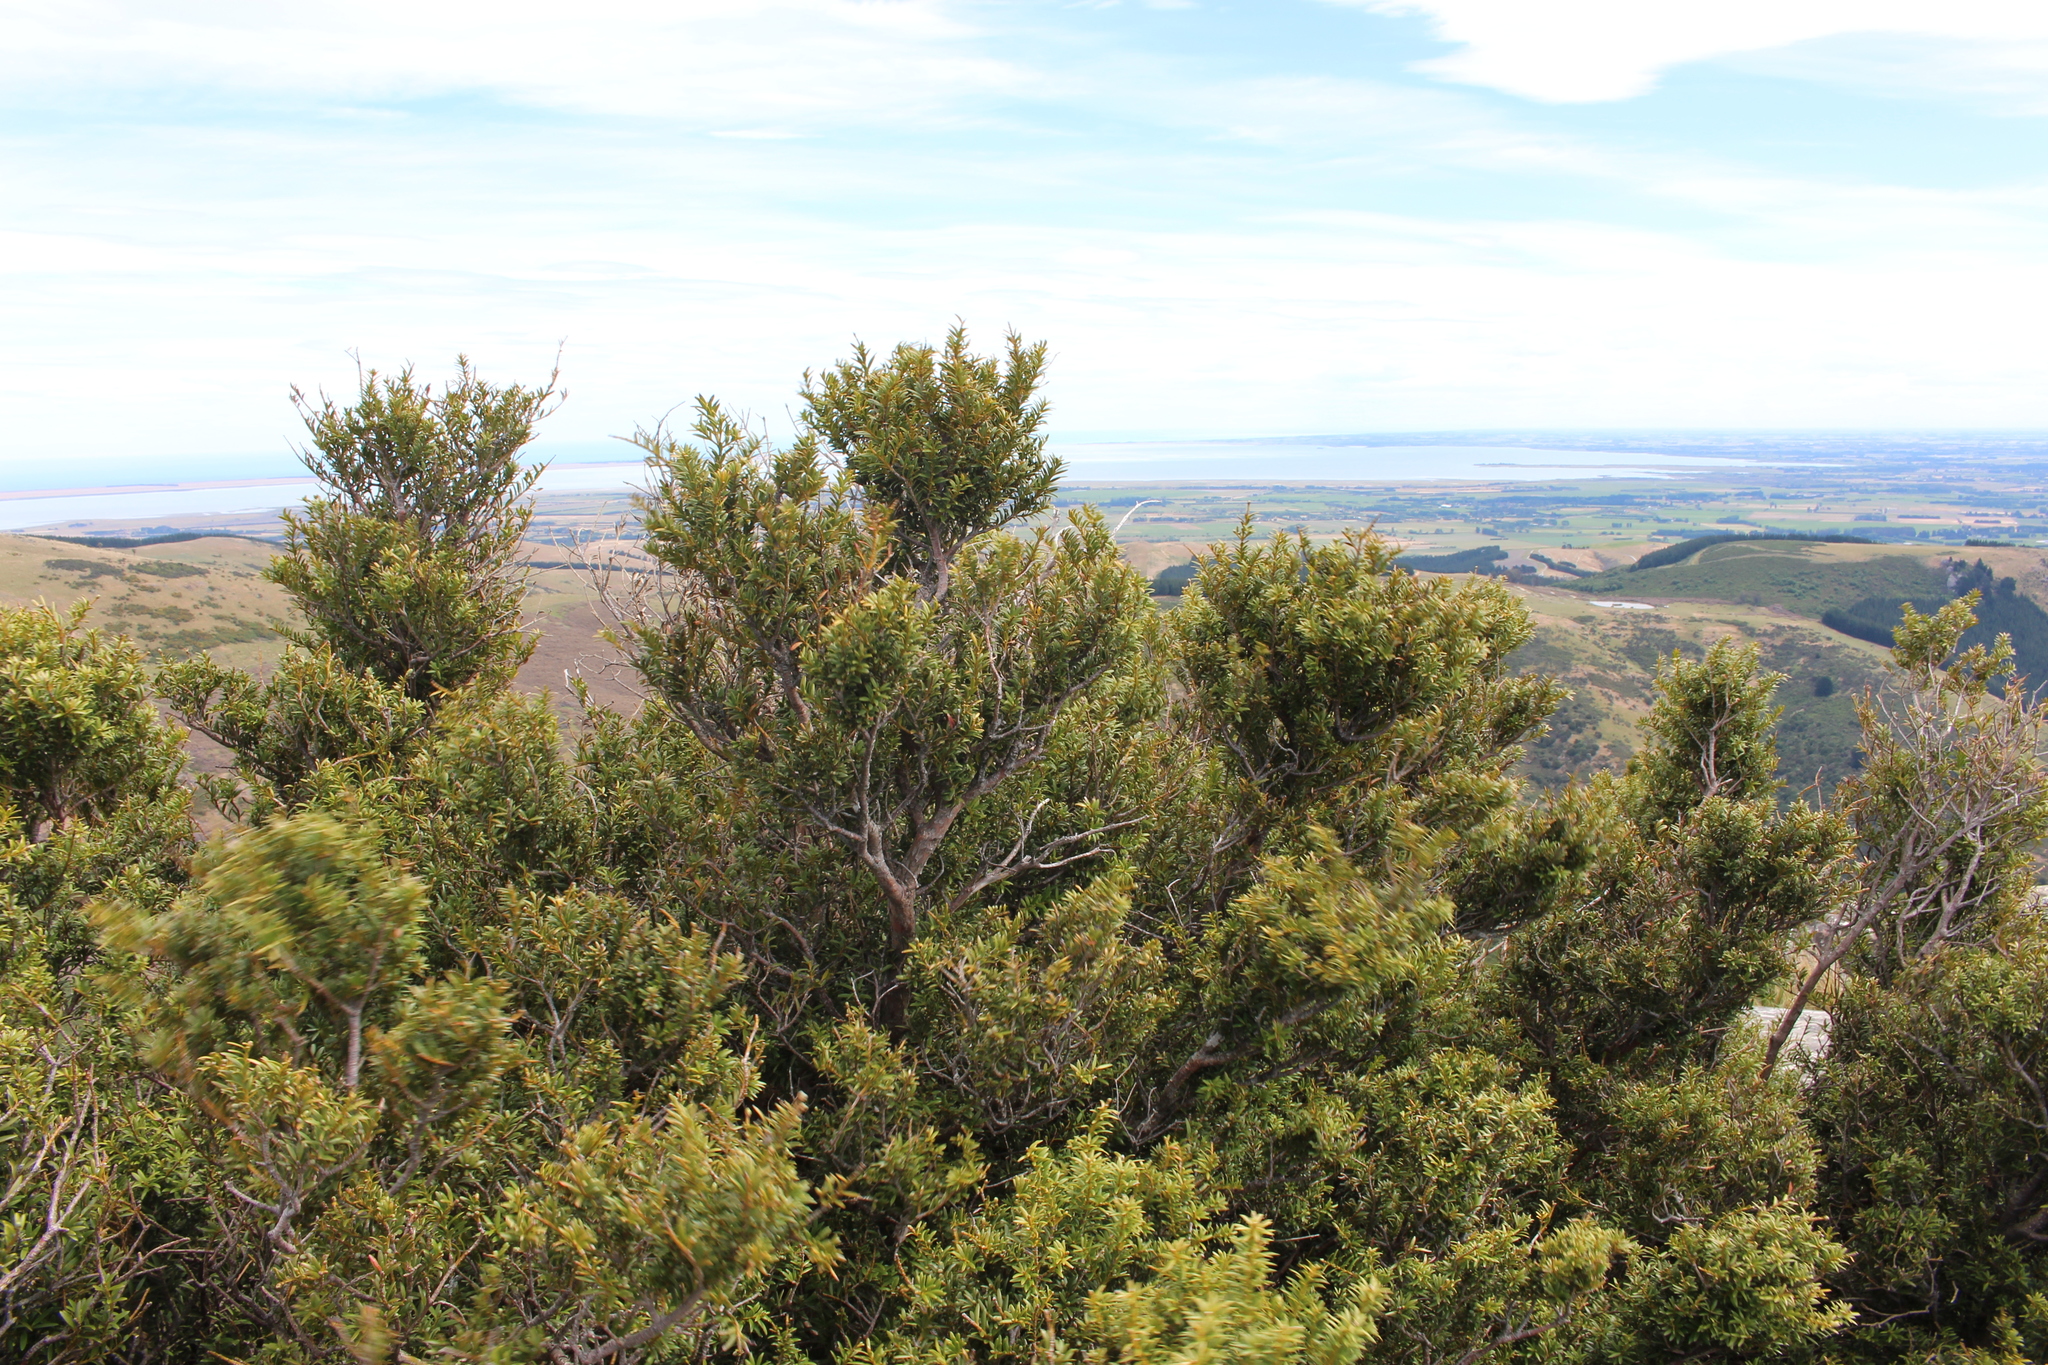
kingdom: Plantae
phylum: Tracheophyta
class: Pinopsida
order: Pinales
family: Podocarpaceae
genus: Podocarpus
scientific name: Podocarpus laetus
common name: Hall's totara
